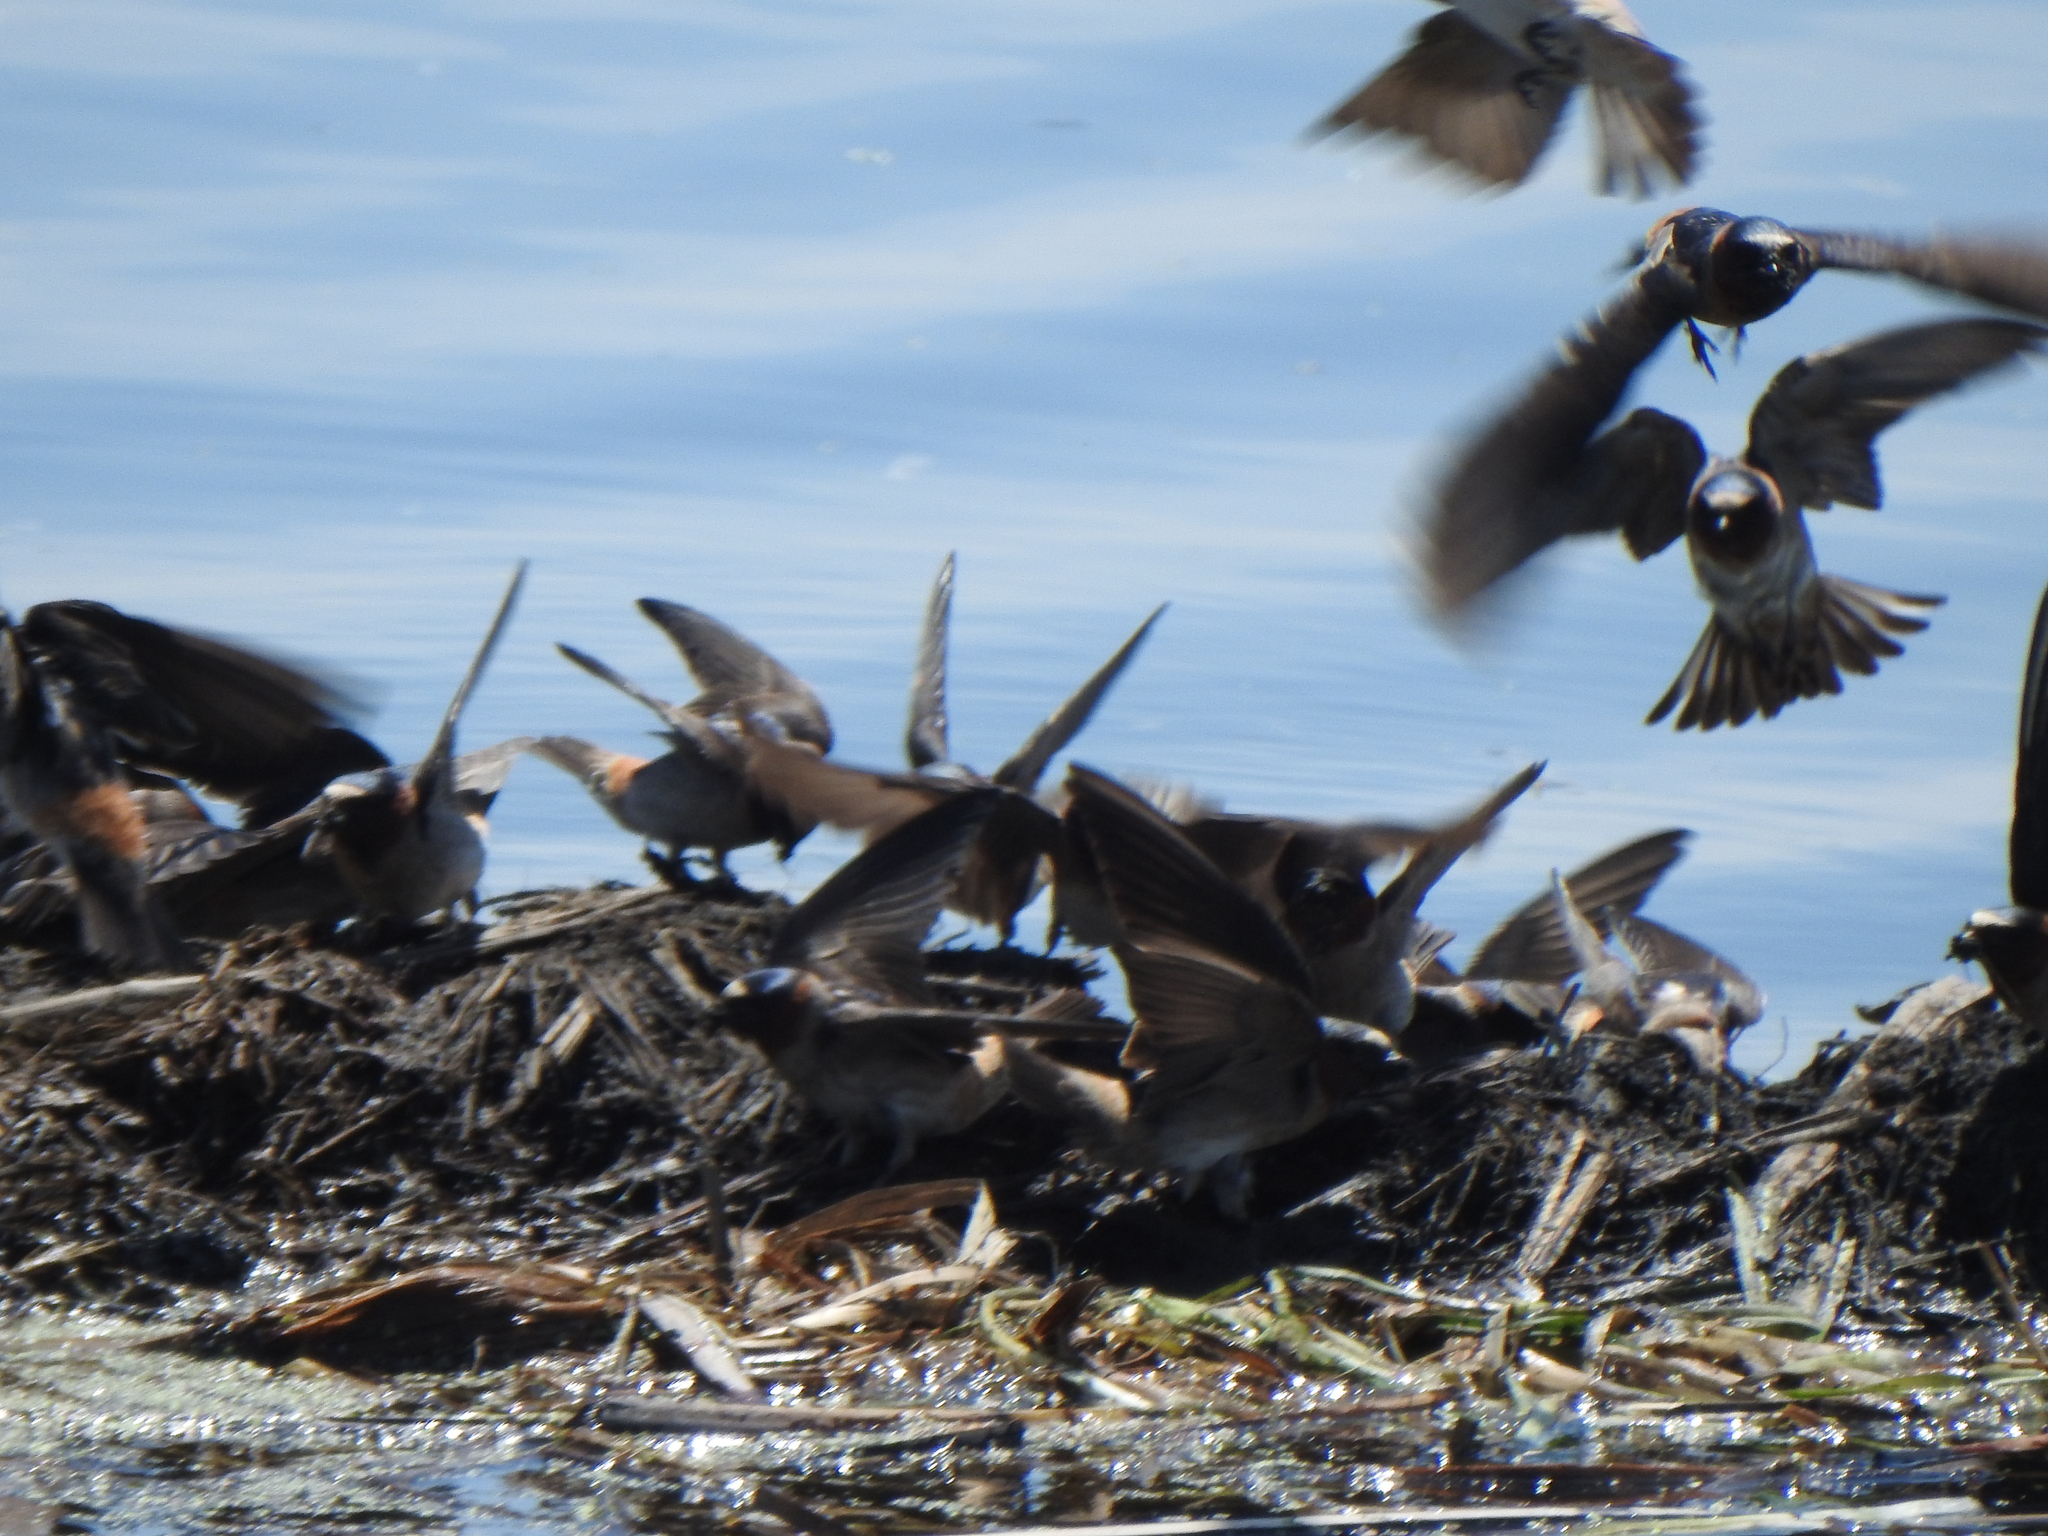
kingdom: Animalia
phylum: Chordata
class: Aves
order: Passeriformes
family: Hirundinidae
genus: Petrochelidon
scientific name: Petrochelidon pyrrhonota
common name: American cliff swallow
